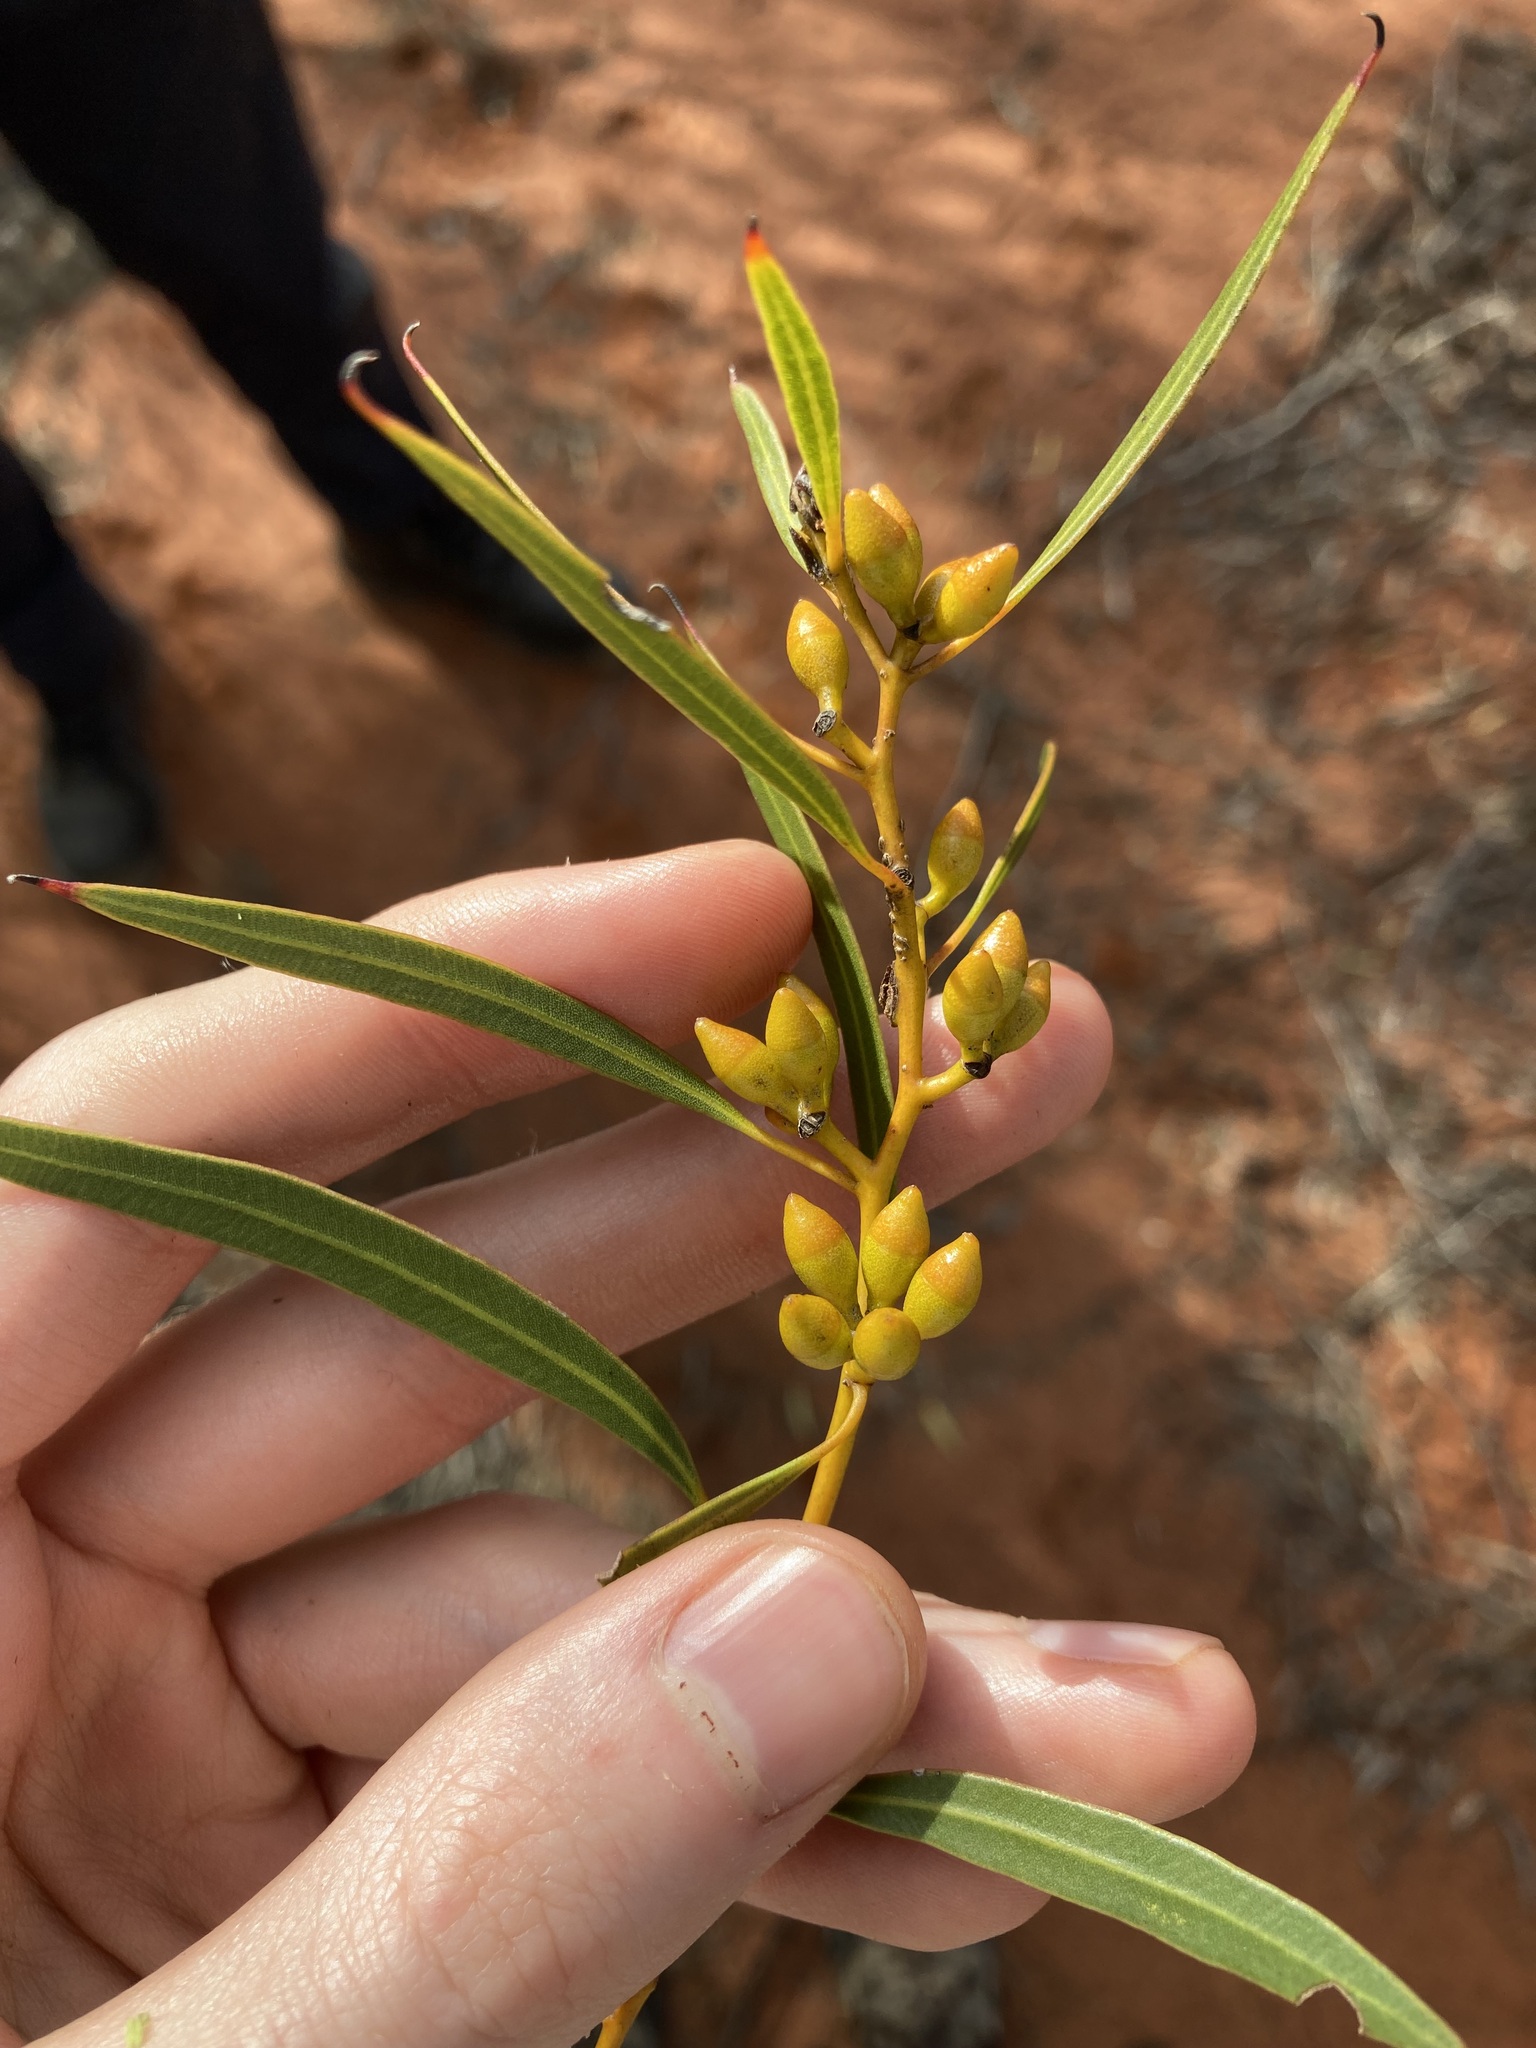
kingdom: Plantae
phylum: Tracheophyta
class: Magnoliopsida
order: Myrtales
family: Myrtaceae
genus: Eucalyptus
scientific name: Eucalyptus rigidula
